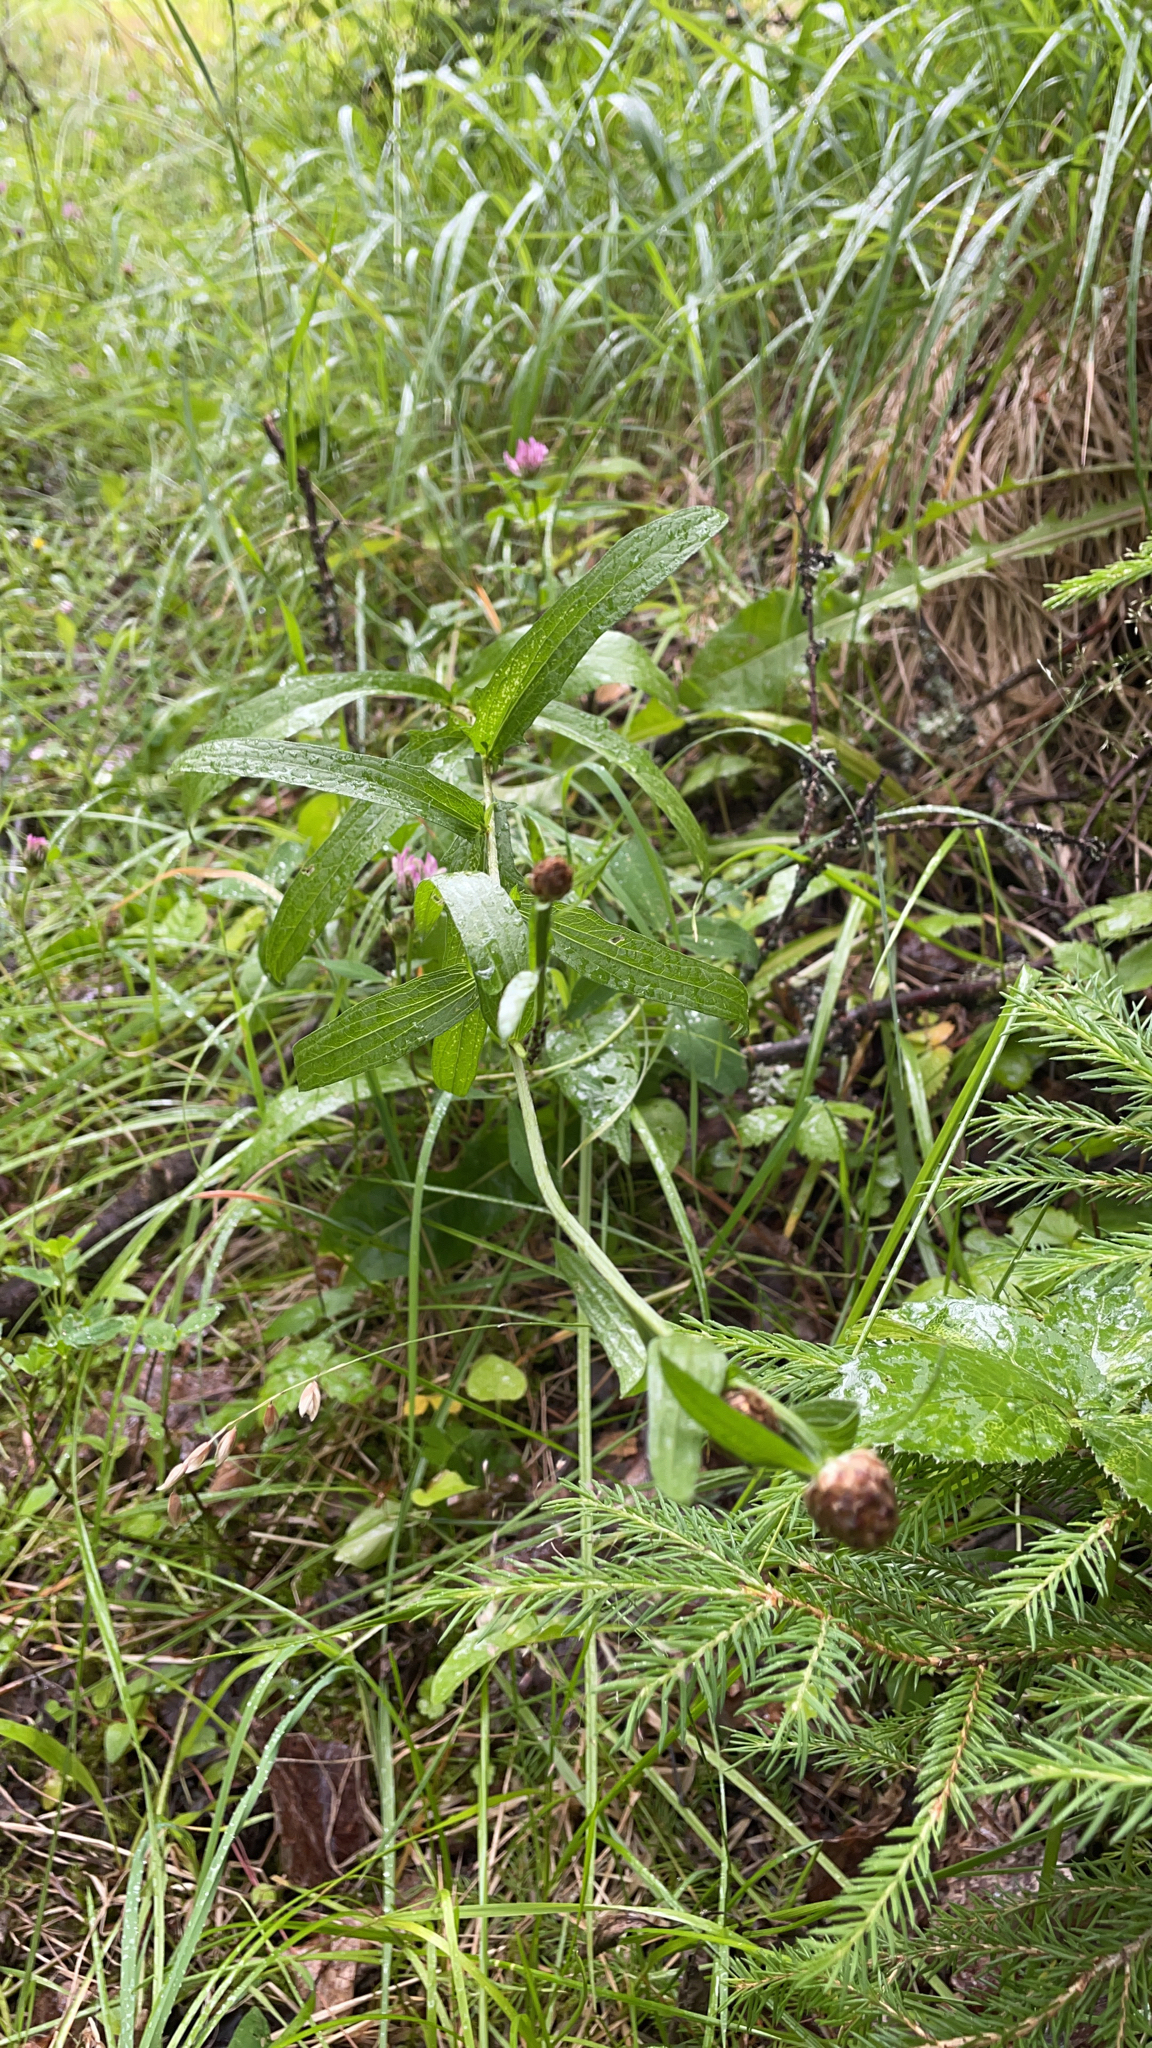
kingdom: Plantae
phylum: Tracheophyta
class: Magnoliopsida
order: Asterales
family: Asteraceae
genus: Centaurea
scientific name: Centaurea jacea
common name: Brown knapweed
